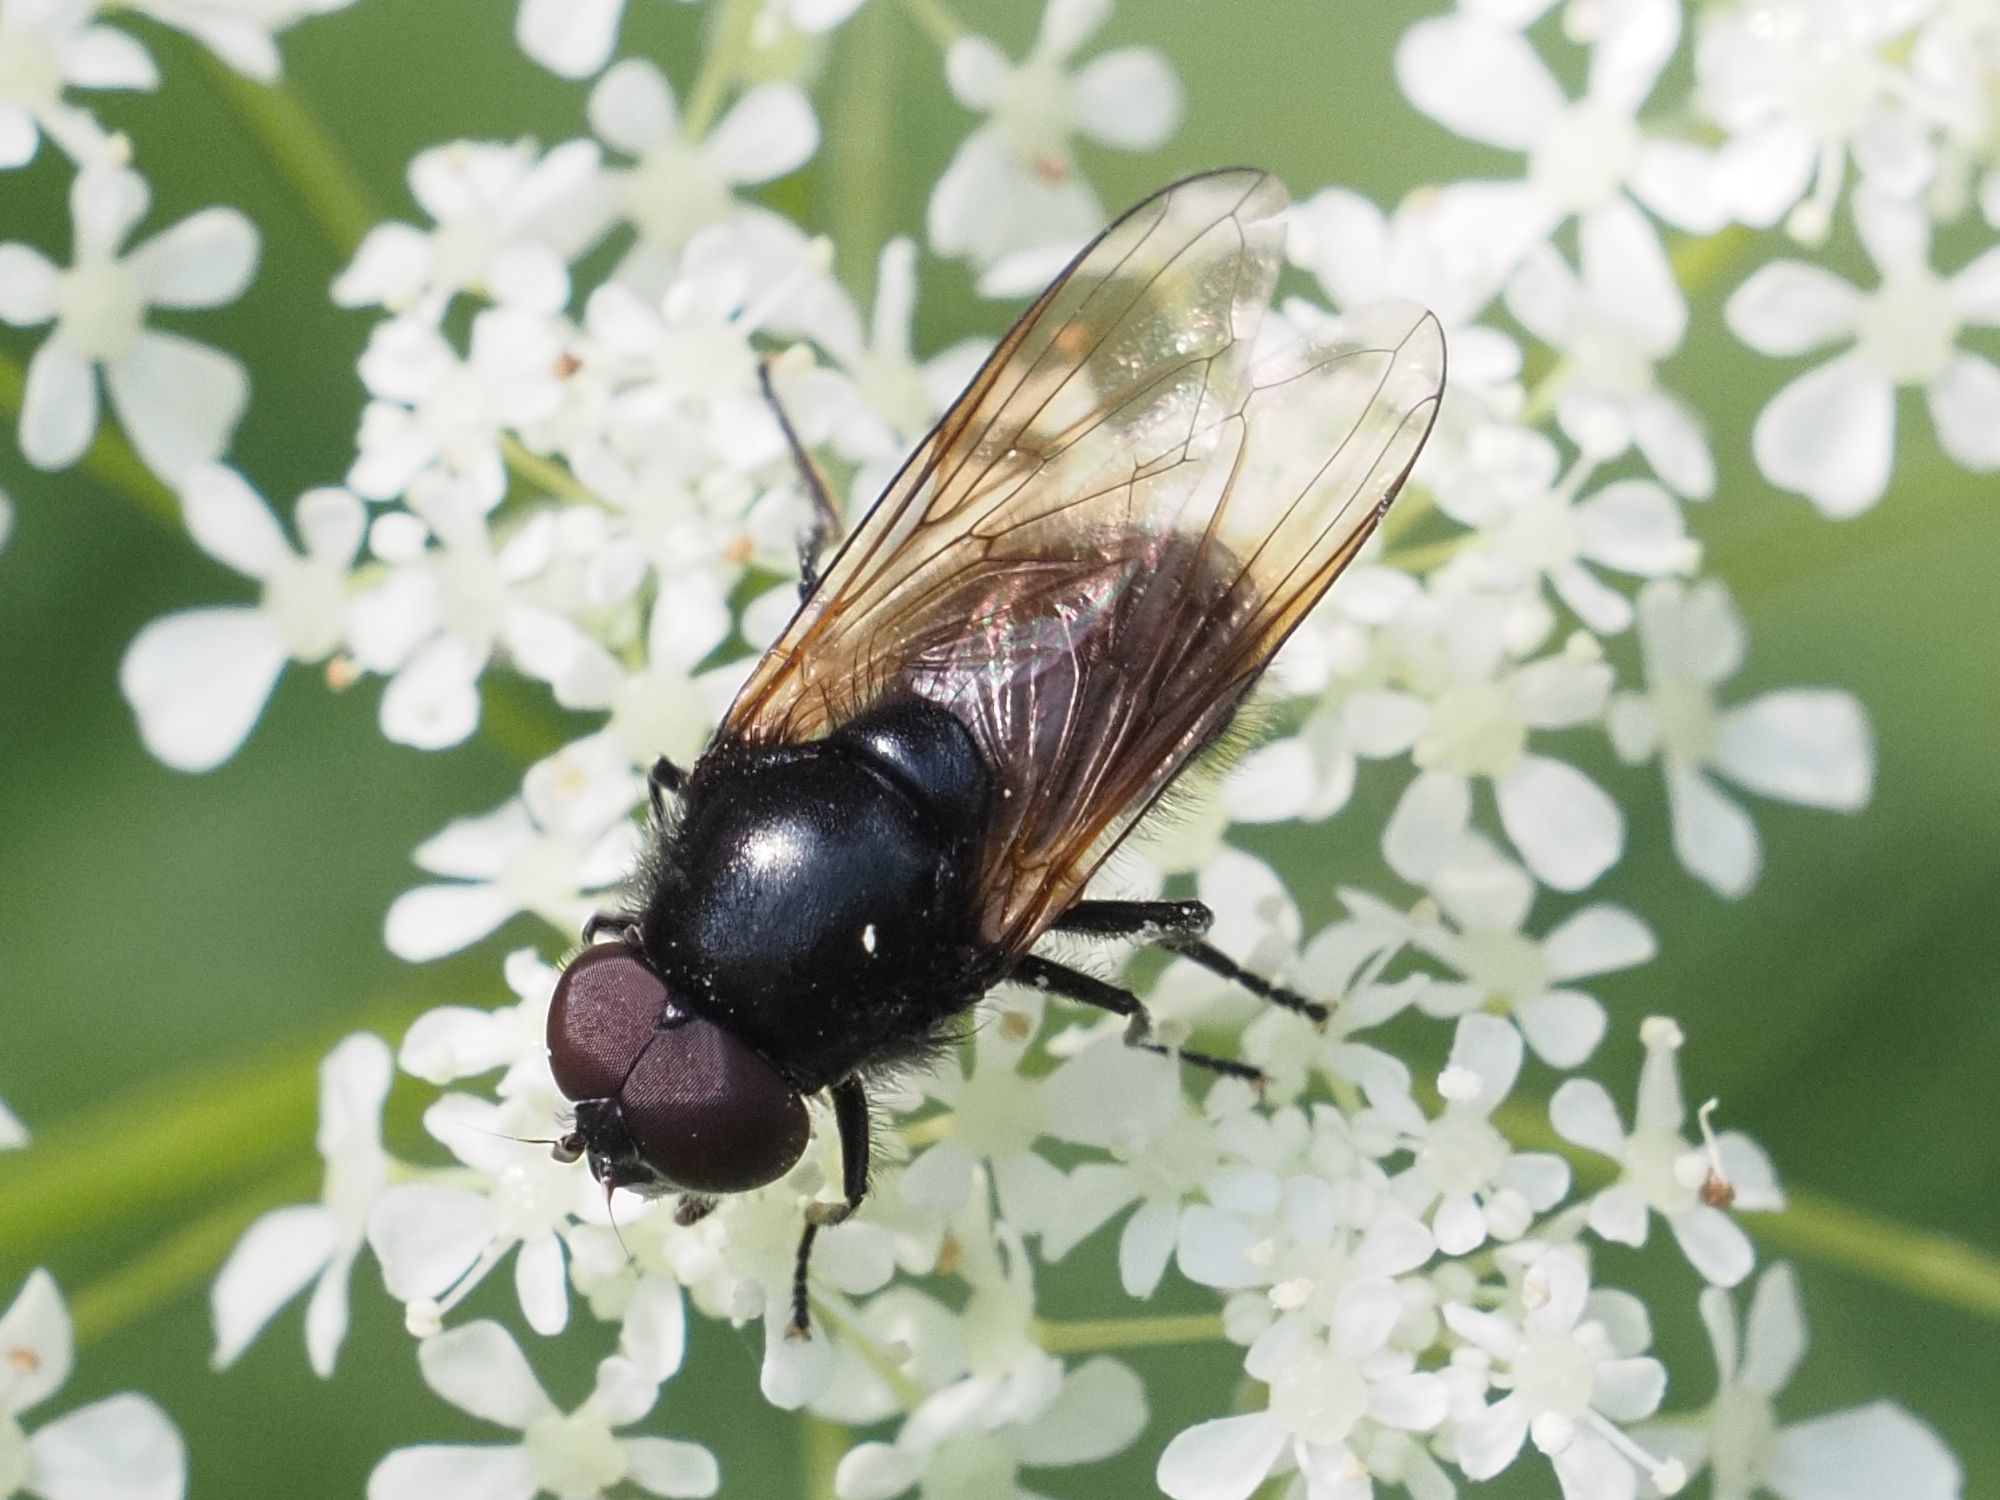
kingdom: Animalia
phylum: Arthropoda
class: Insecta
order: Diptera
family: Syrphidae
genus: Cheilosia
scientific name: Cheilosia impressa
